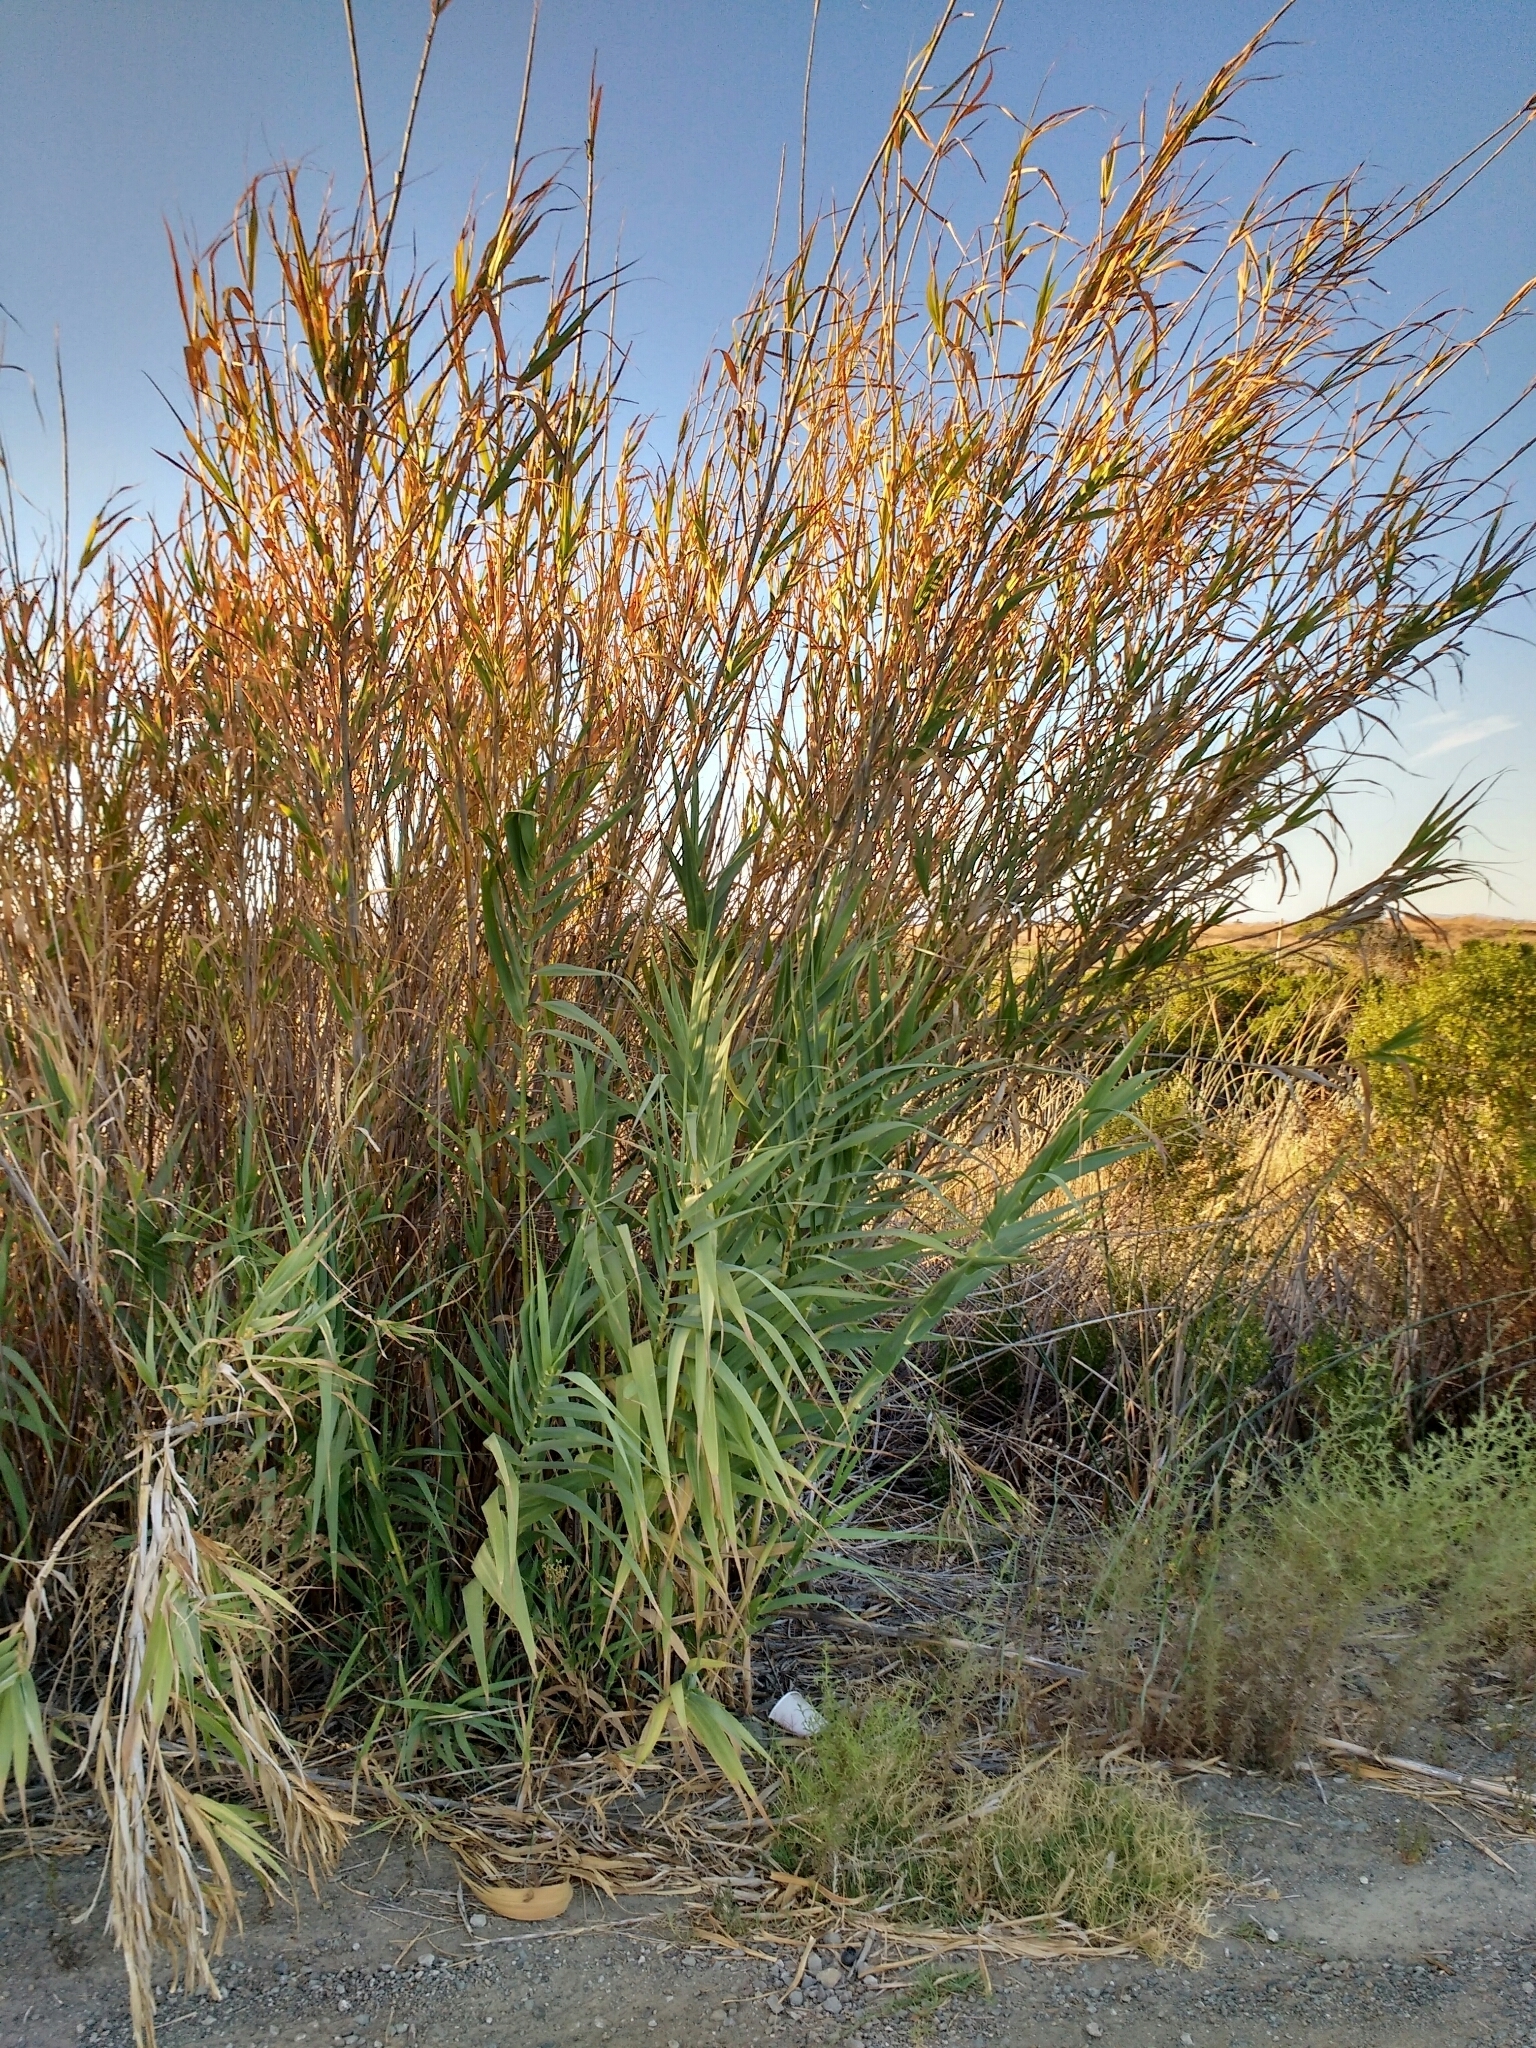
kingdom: Plantae
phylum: Tracheophyta
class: Liliopsida
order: Poales
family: Poaceae
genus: Arundo
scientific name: Arundo donax
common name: Giant reed
